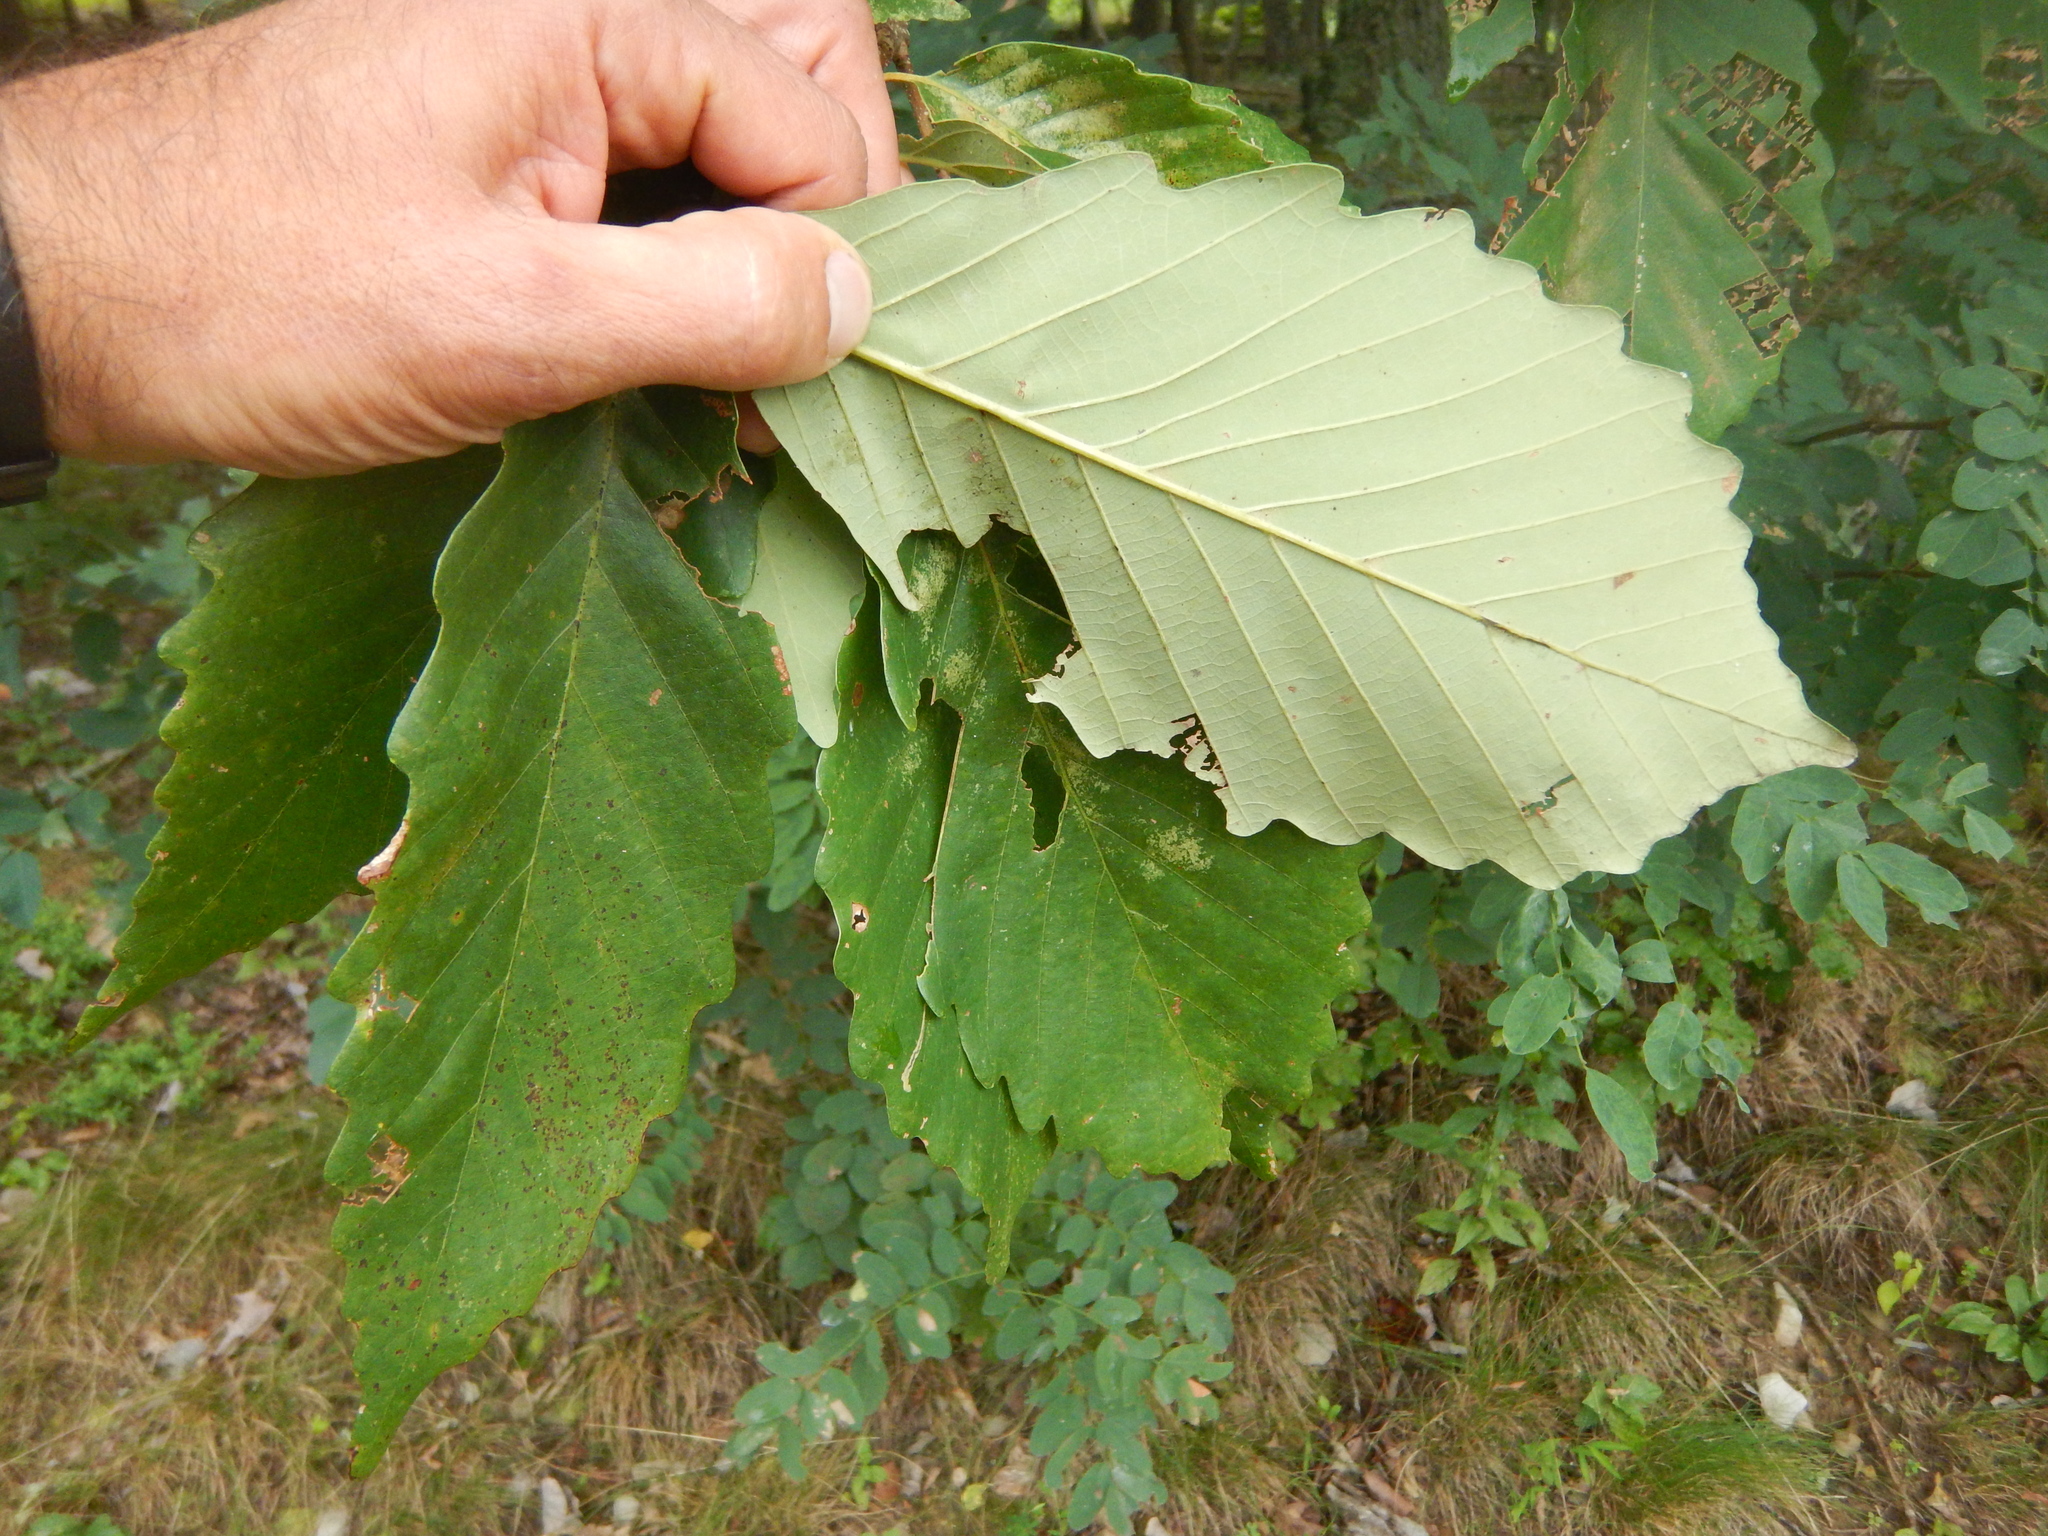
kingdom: Plantae
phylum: Tracheophyta
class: Magnoliopsida
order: Fagales
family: Fagaceae
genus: Quercus
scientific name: Quercus montana
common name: Chestnut oak
